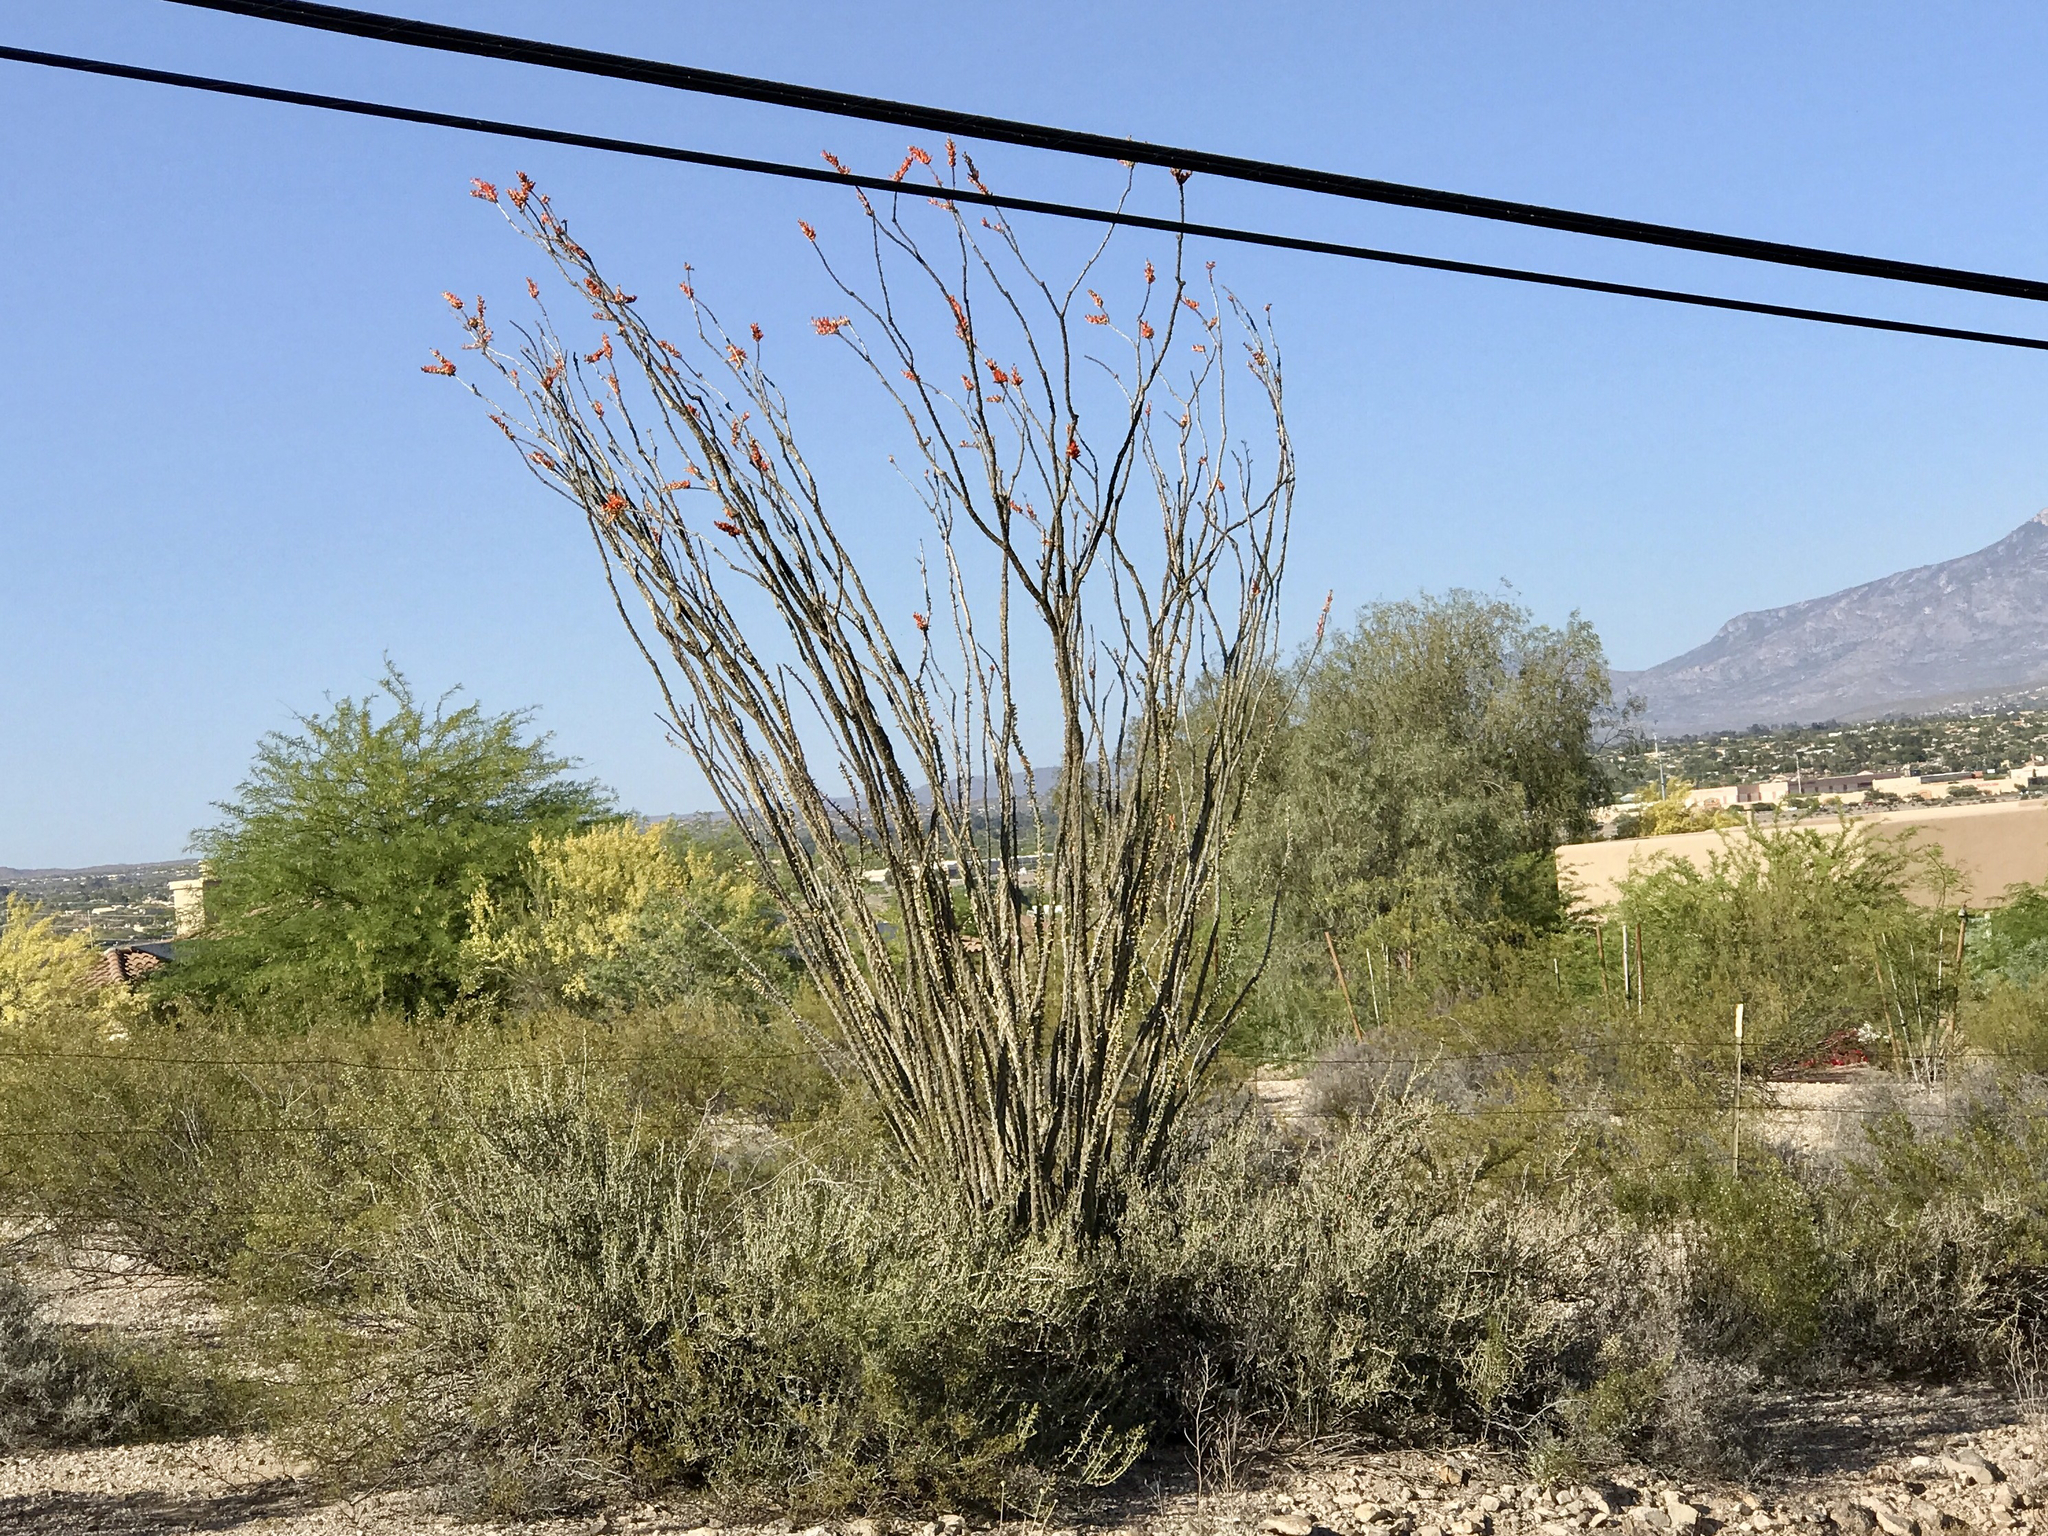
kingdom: Plantae
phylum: Tracheophyta
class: Magnoliopsida
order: Ericales
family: Fouquieriaceae
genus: Fouquieria
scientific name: Fouquieria splendens
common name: Vine-cactus
